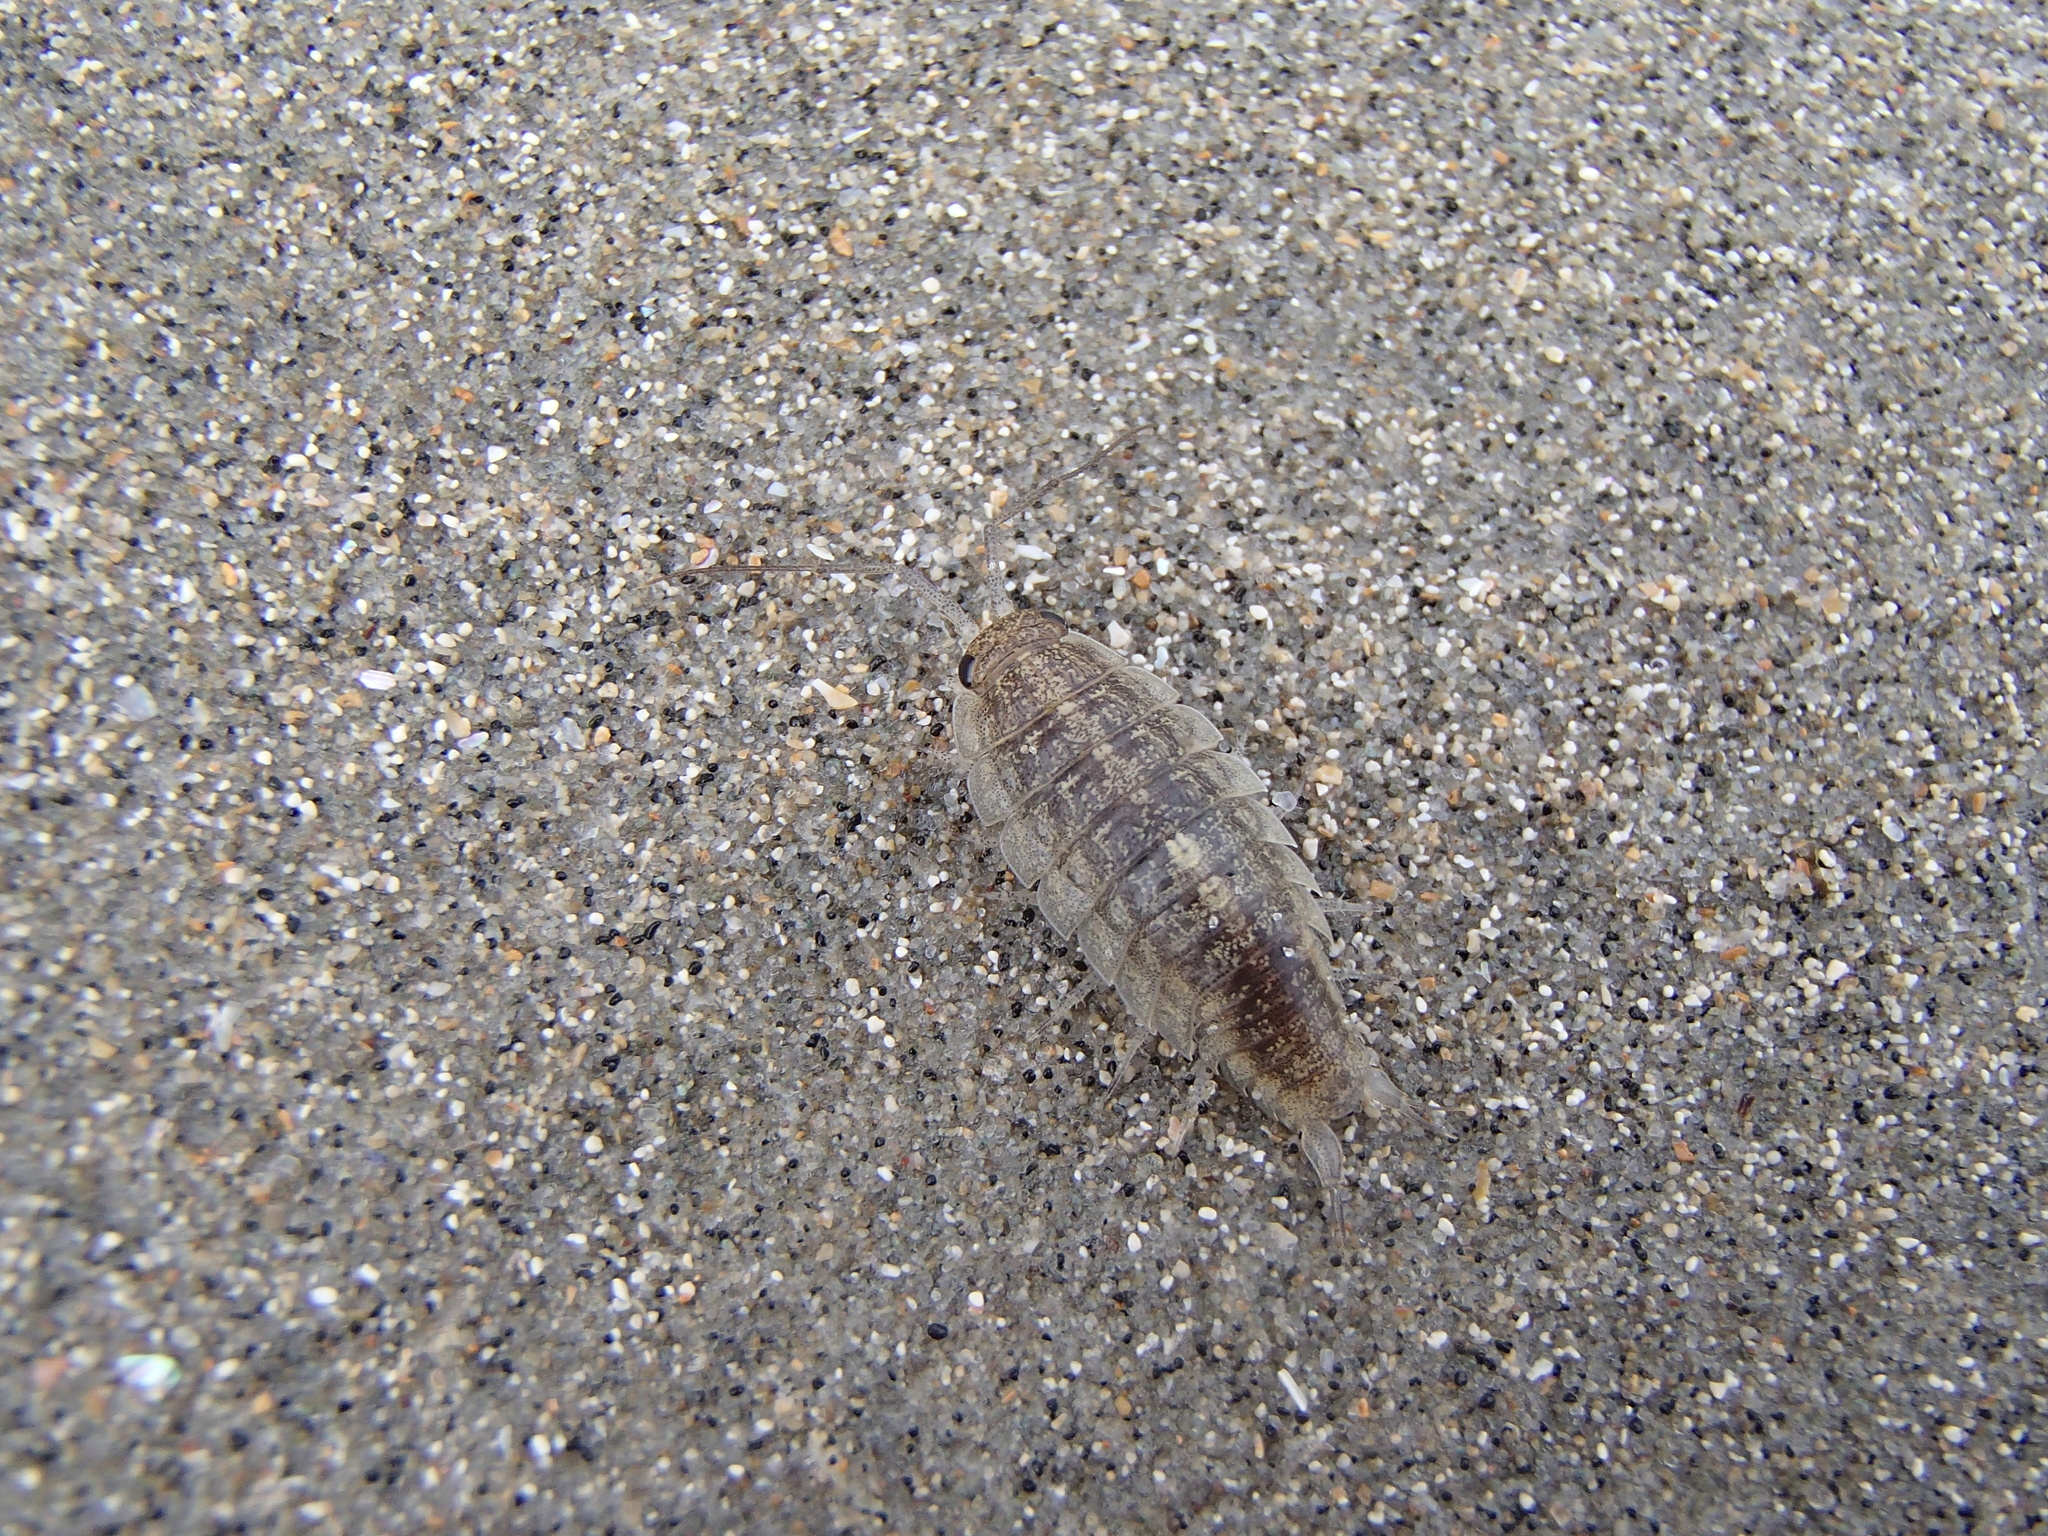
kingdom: Animalia
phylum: Arthropoda
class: Malacostraca
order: Isopoda
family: Ligiidae
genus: Ligia
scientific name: Ligia novizealandiae
